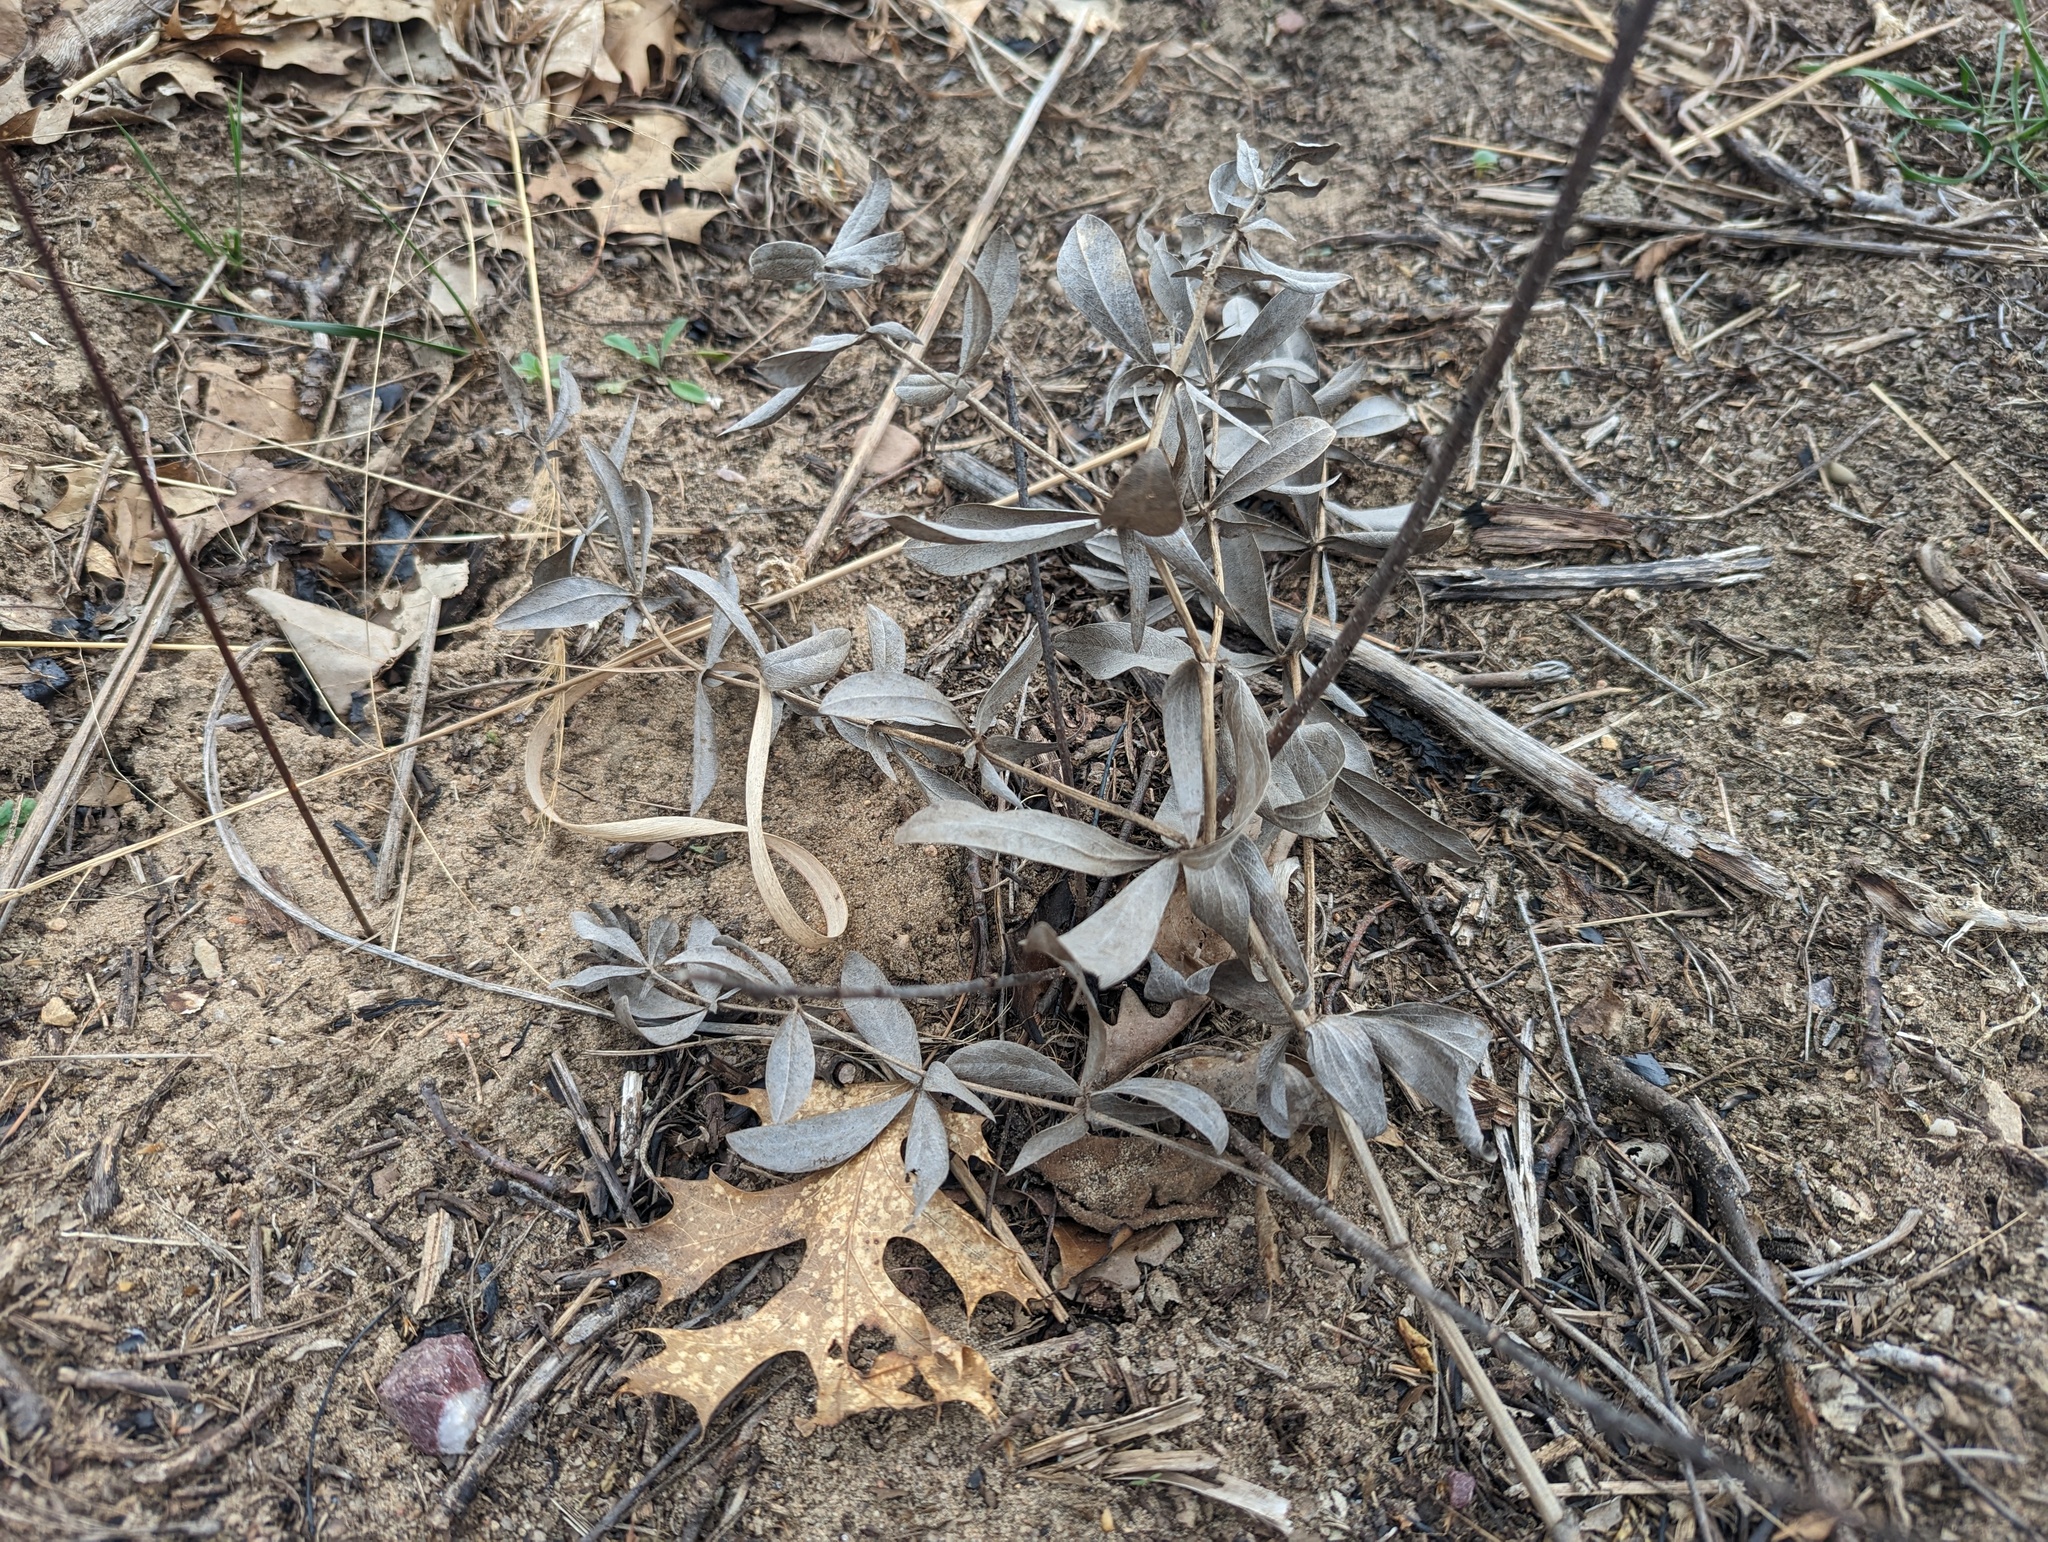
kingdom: Plantae
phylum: Tracheophyta
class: Magnoliopsida
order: Fabales
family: Fabaceae
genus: Baptisia
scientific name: Baptisia bracteata
